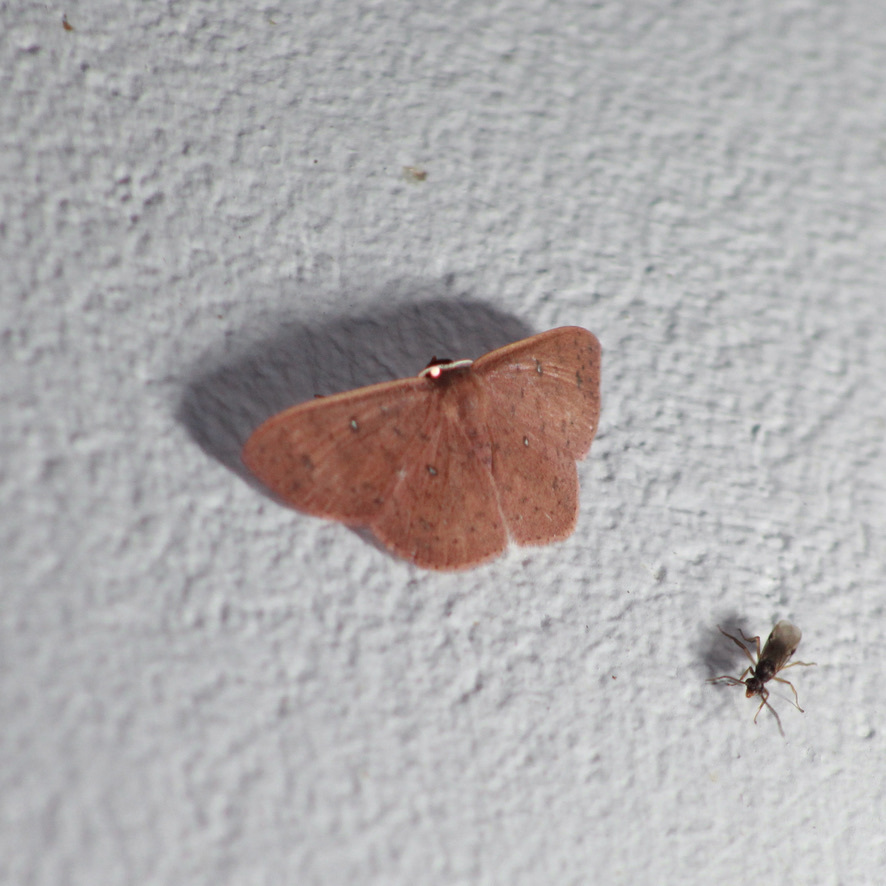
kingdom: Animalia
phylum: Arthropoda
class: Insecta
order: Lepidoptera
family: Geometridae
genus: Semaeopus
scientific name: Semaeopus caecaria
